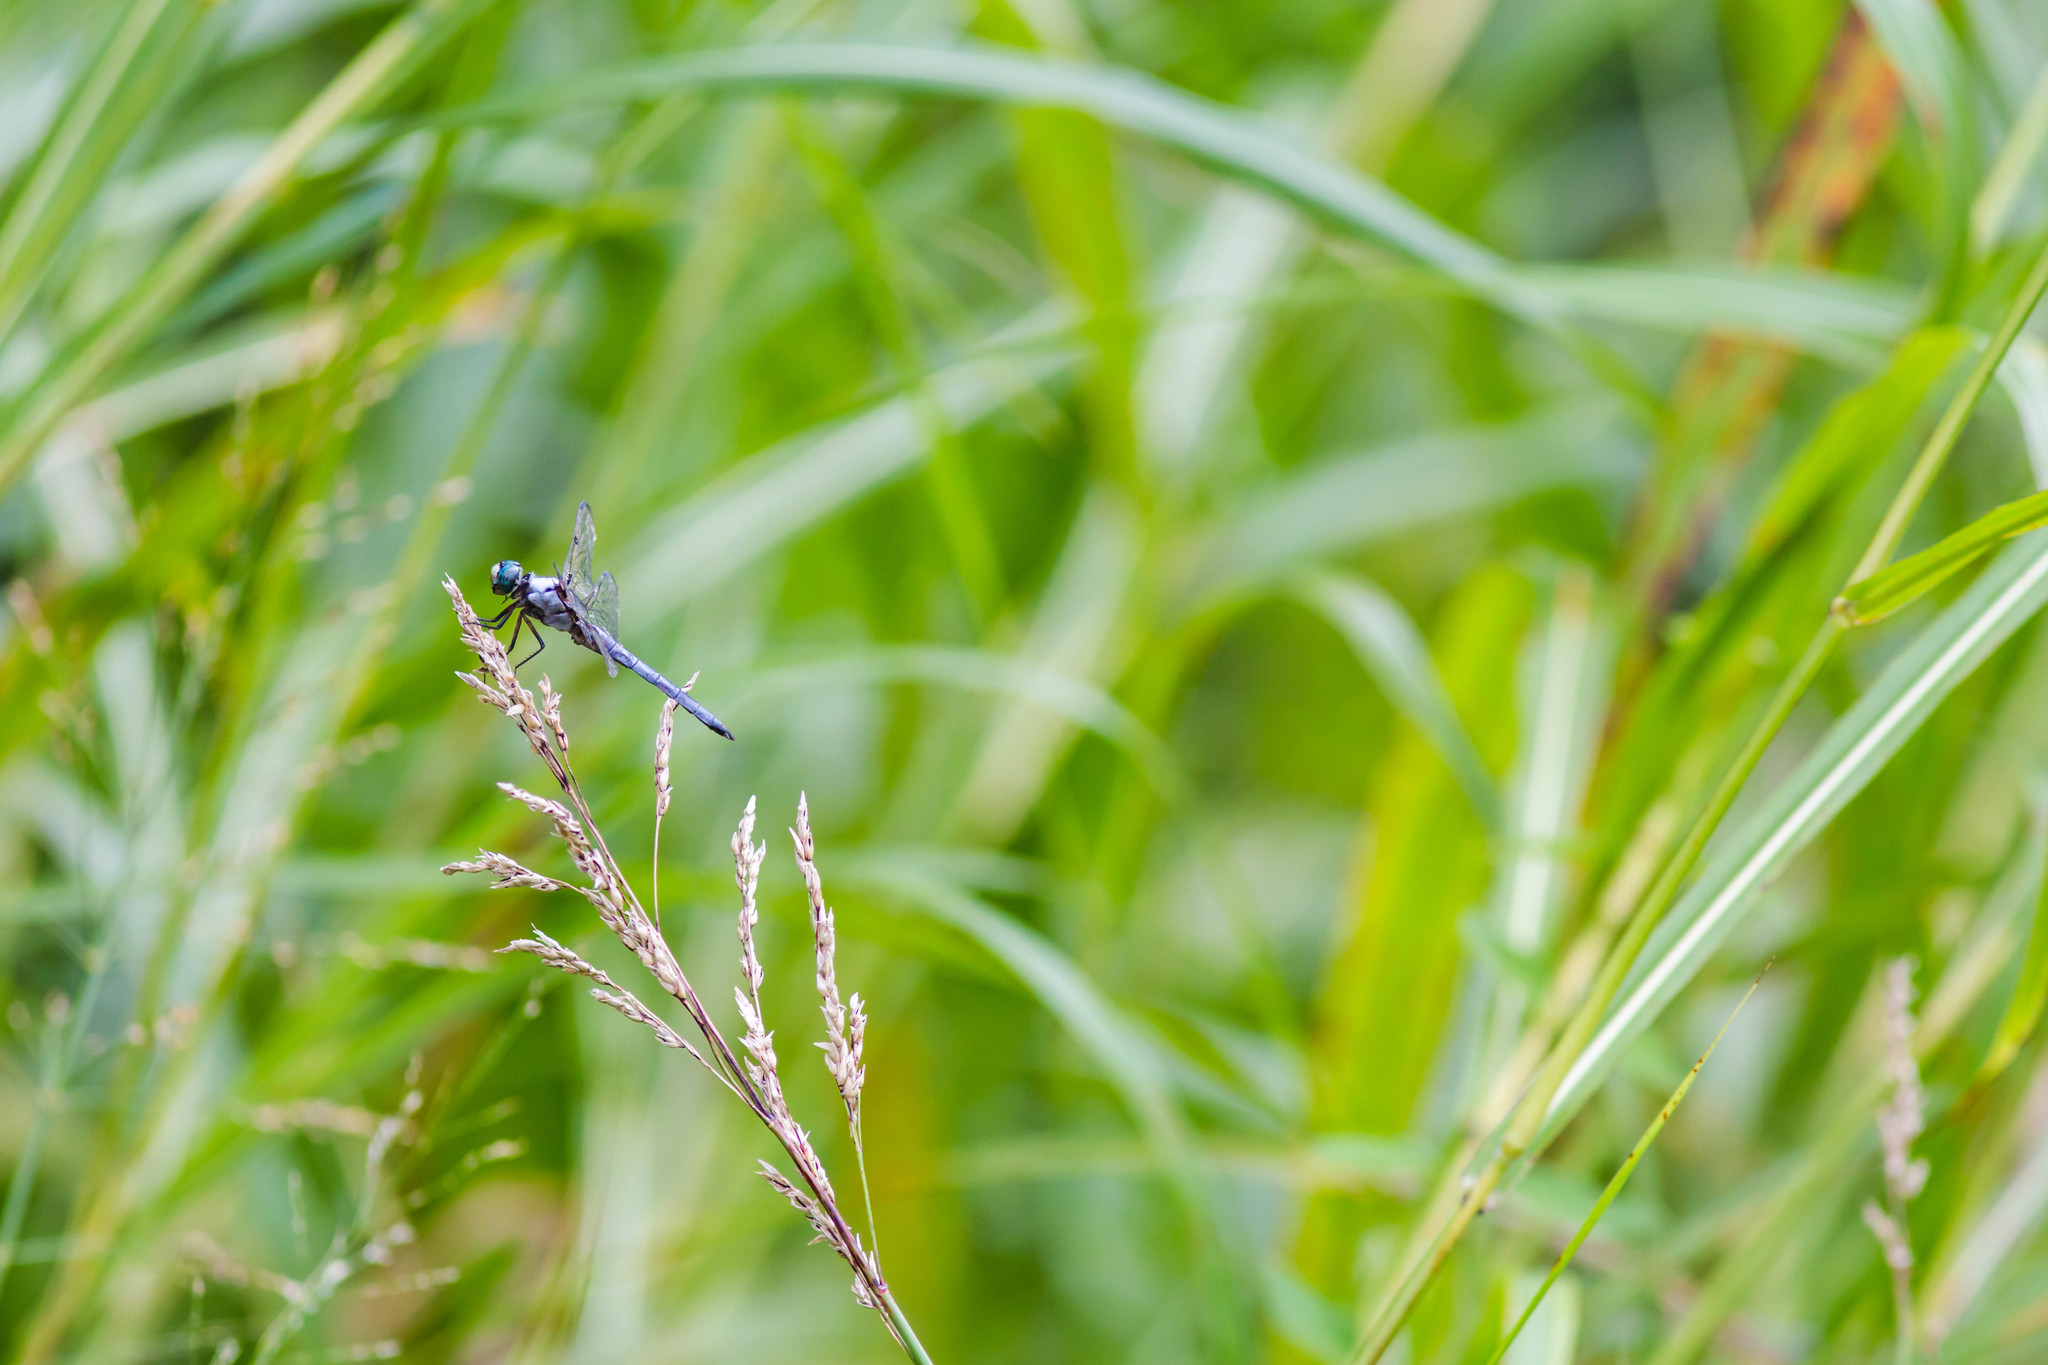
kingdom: Animalia
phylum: Arthropoda
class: Insecta
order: Odonata
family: Libellulidae
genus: Libellula
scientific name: Libellula vibrans
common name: Great blue skimmer
